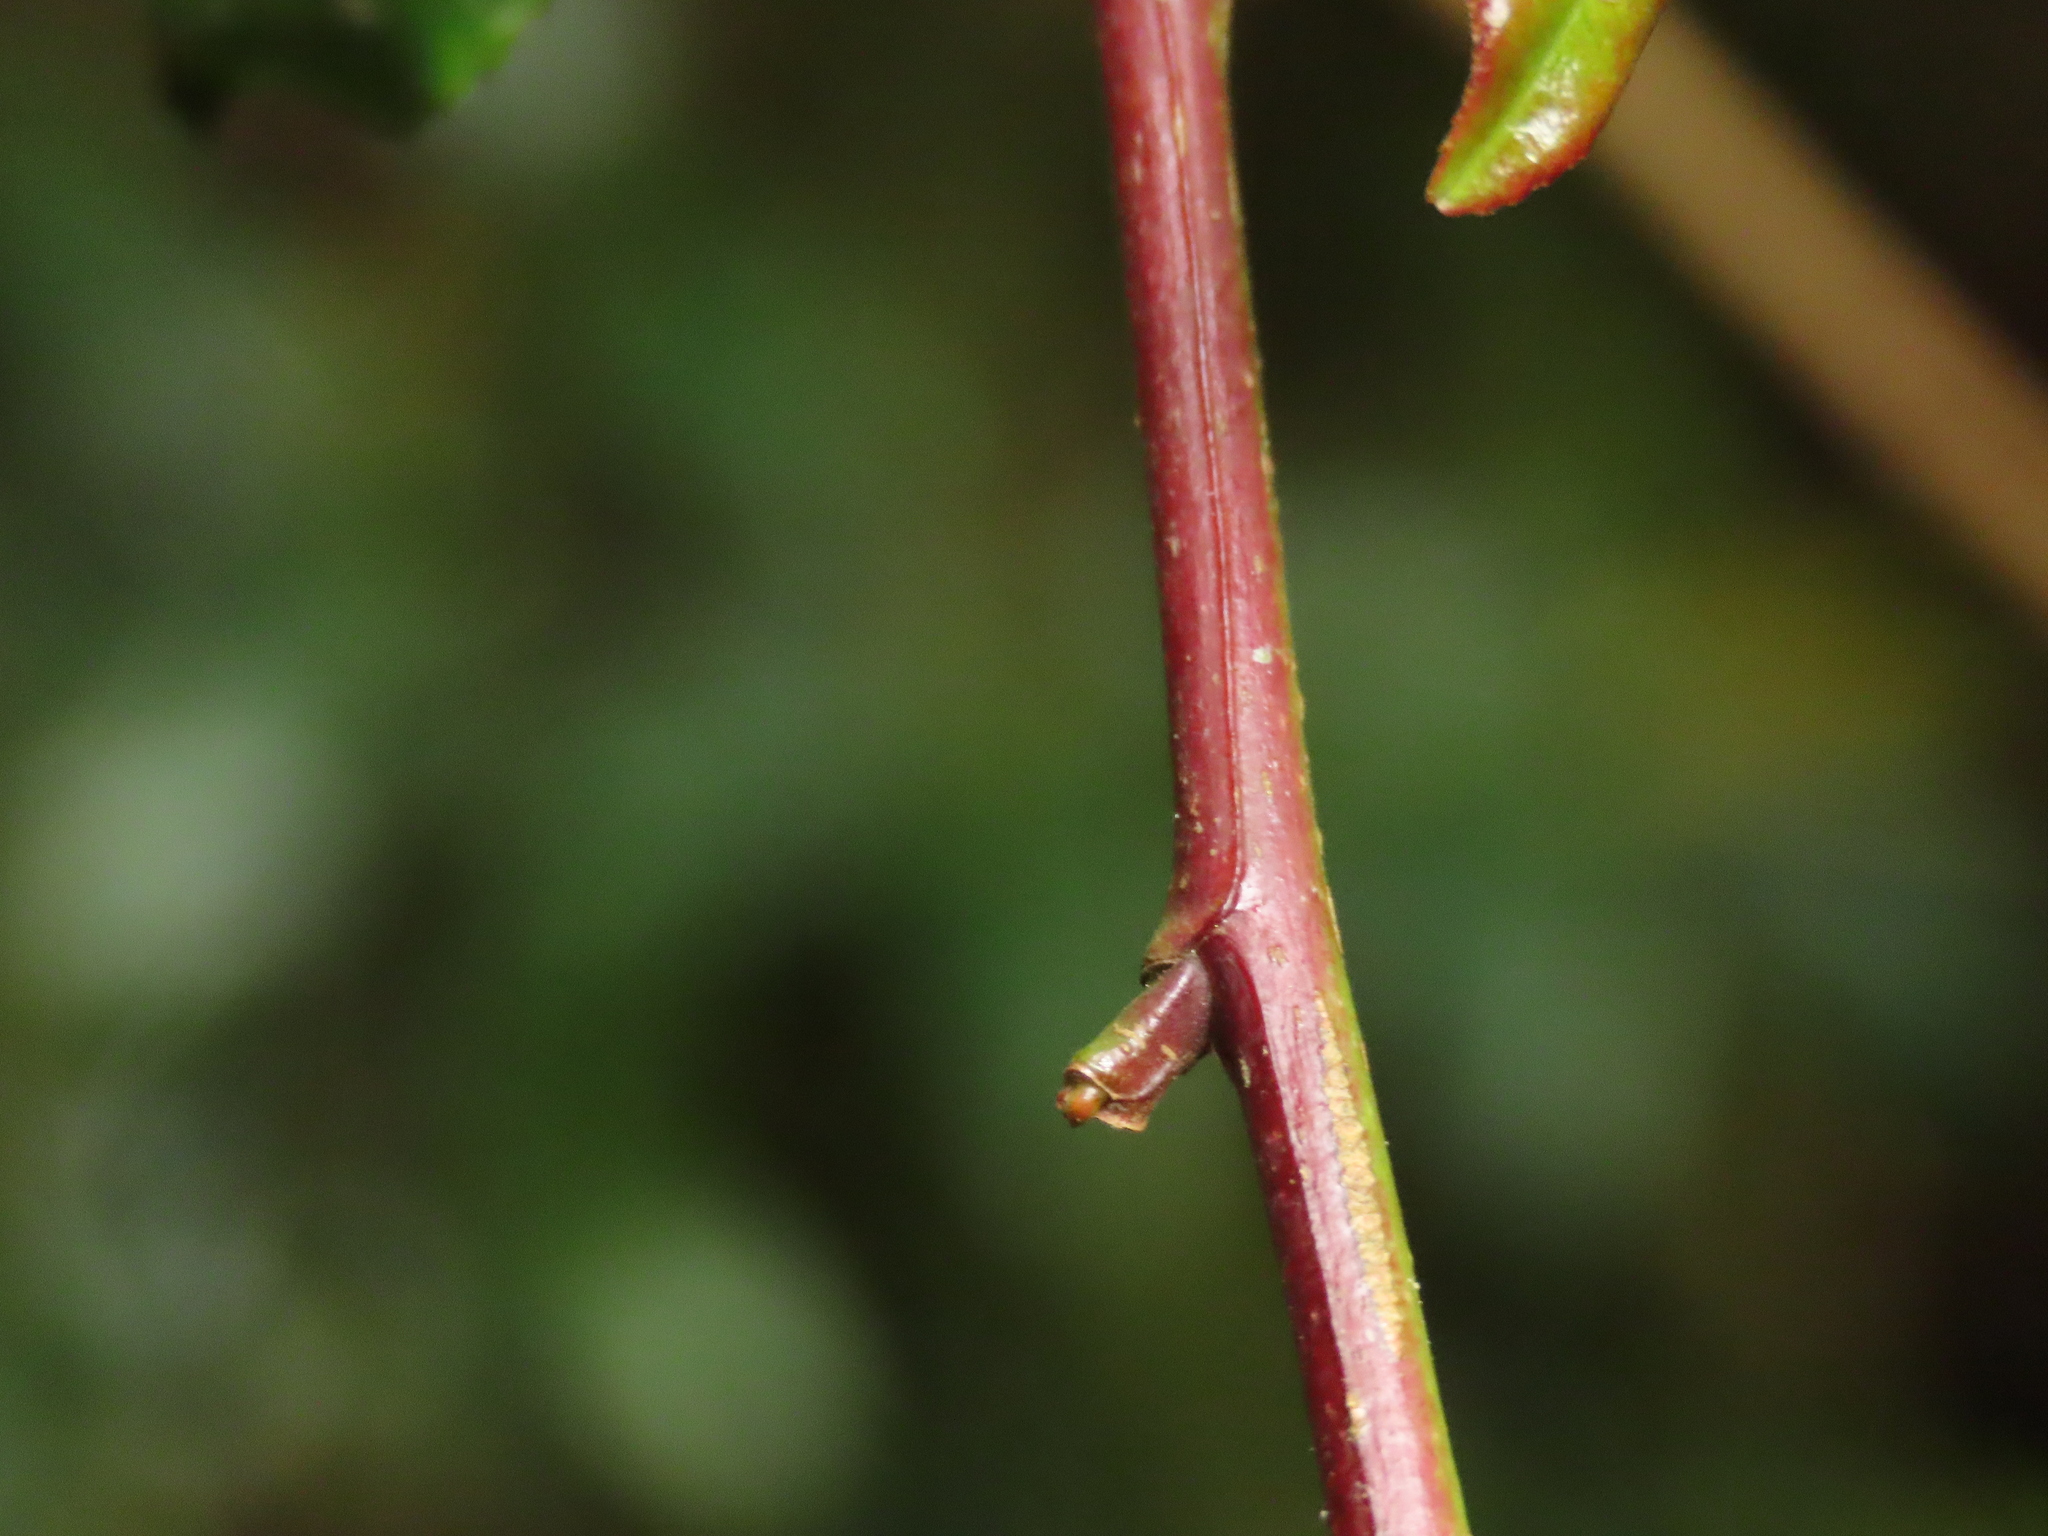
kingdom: Plantae
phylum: Tracheophyta
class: Magnoliopsida
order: Ericales
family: Pentaphylacaceae
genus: Eurya
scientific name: Eurya glaberrima
